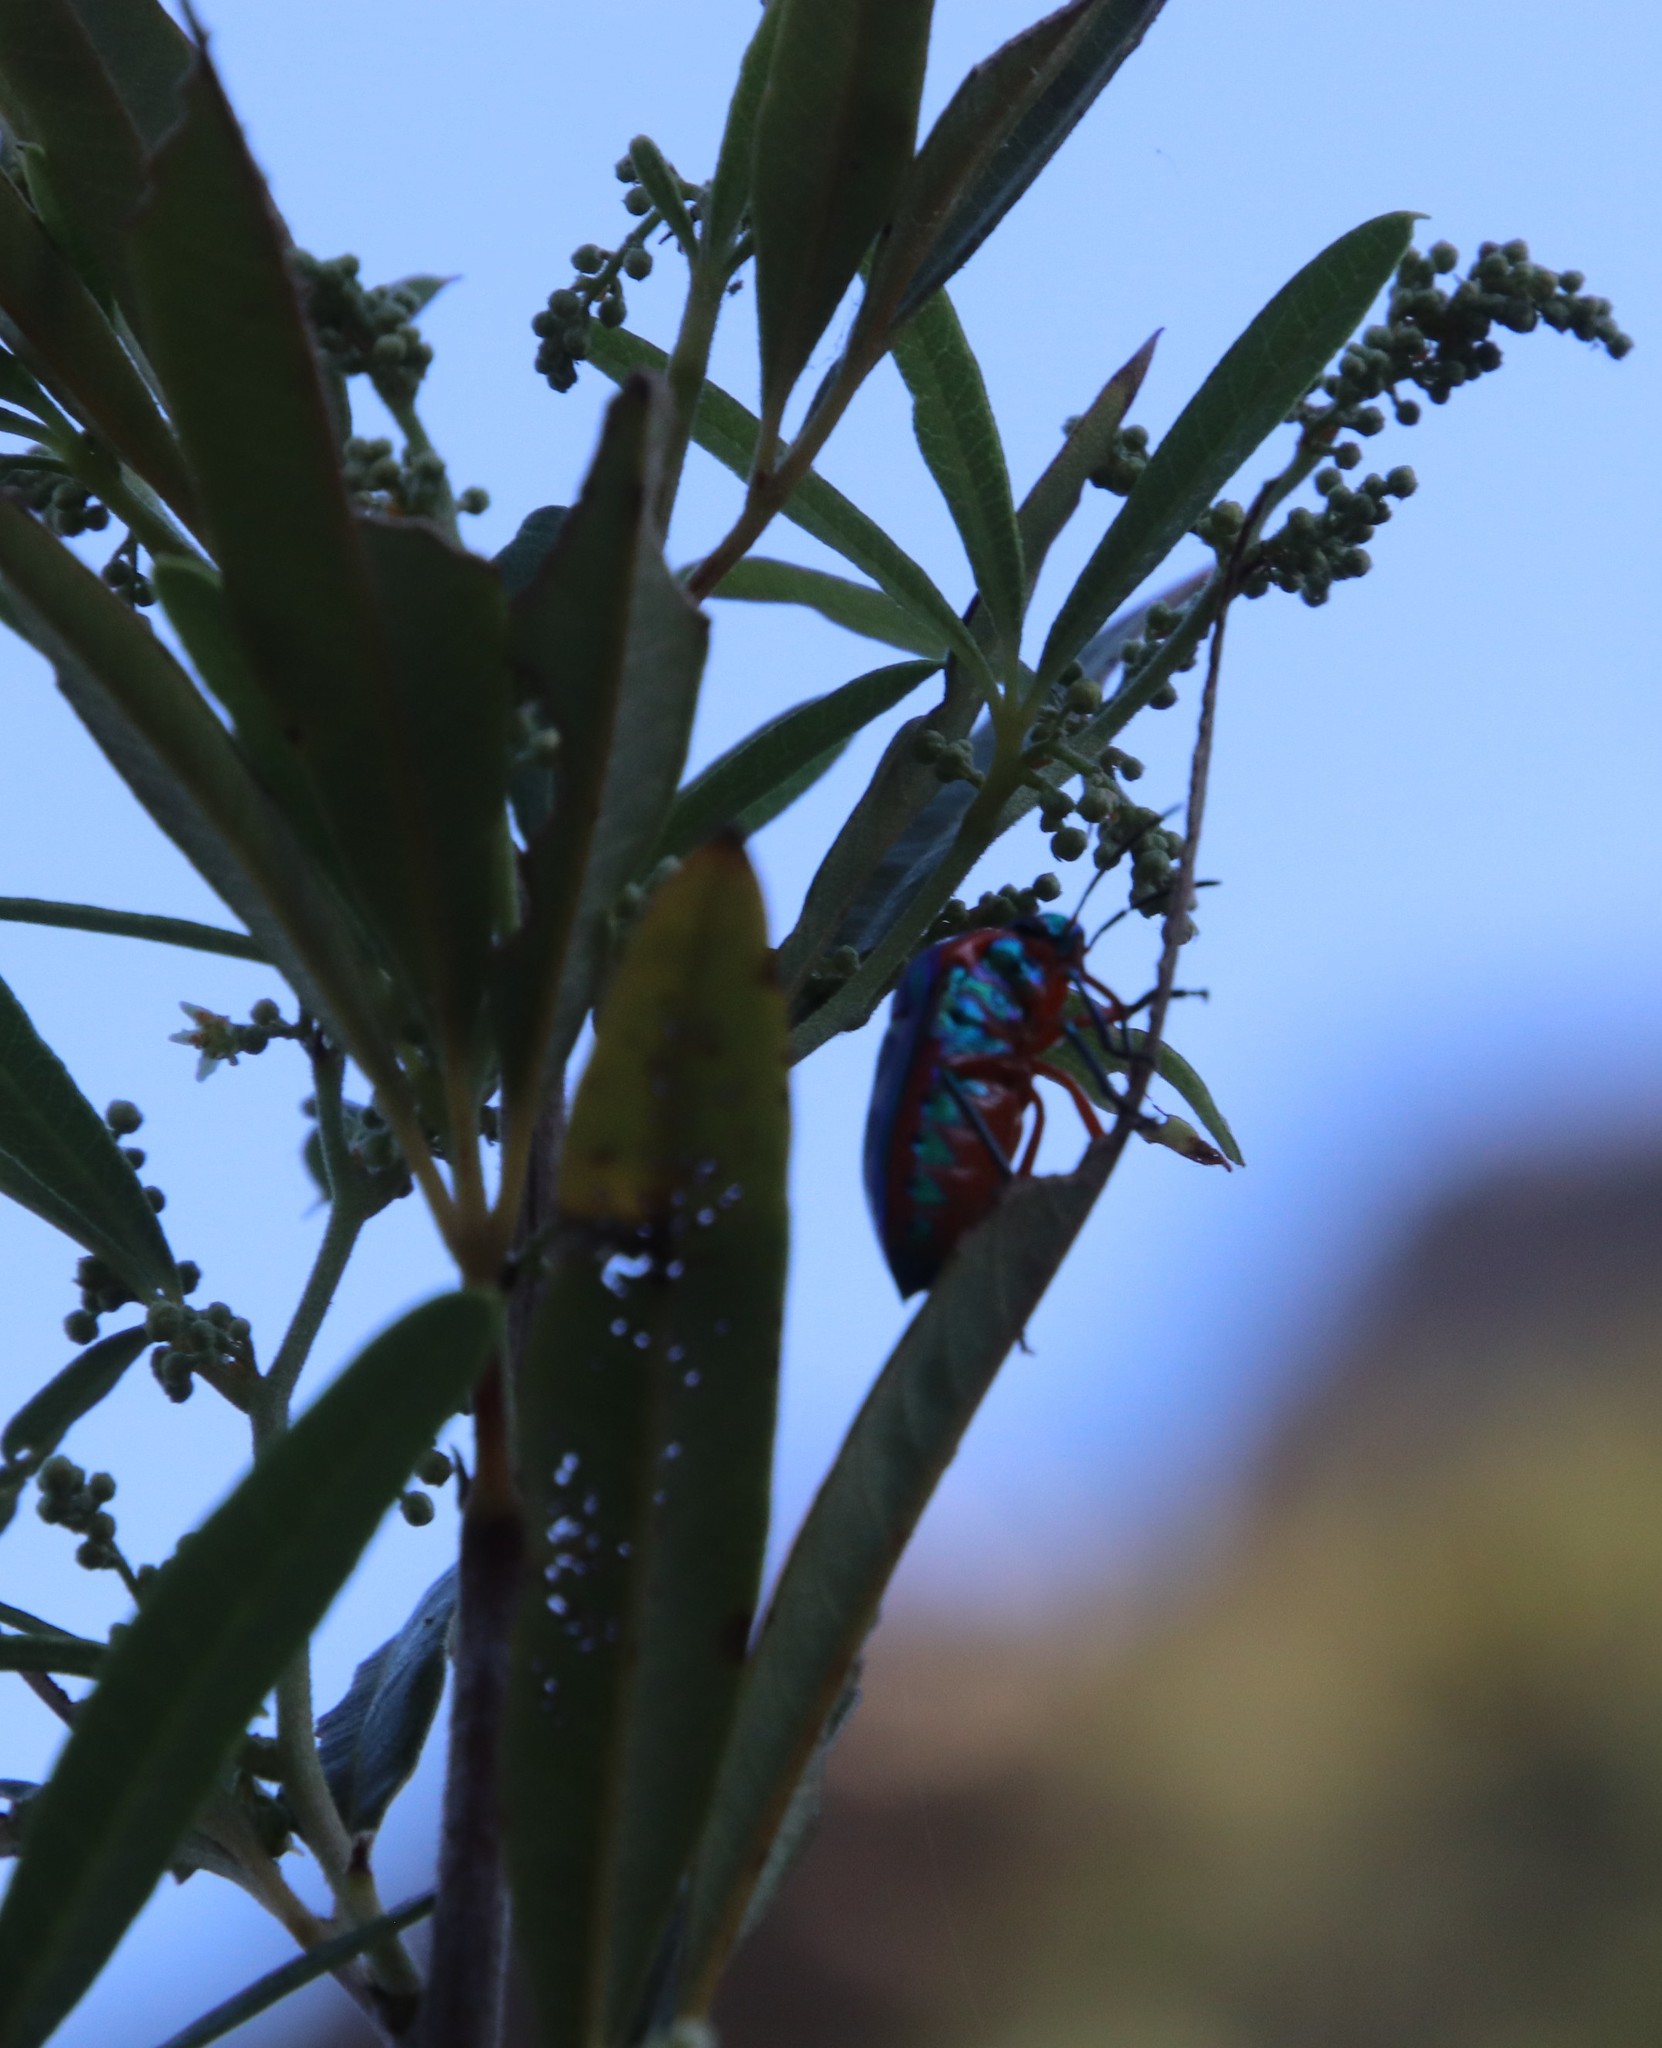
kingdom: Animalia
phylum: Arthropoda
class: Insecta
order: Hemiptera
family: Scutelleridae
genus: Calidea
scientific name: Calidea dregii
